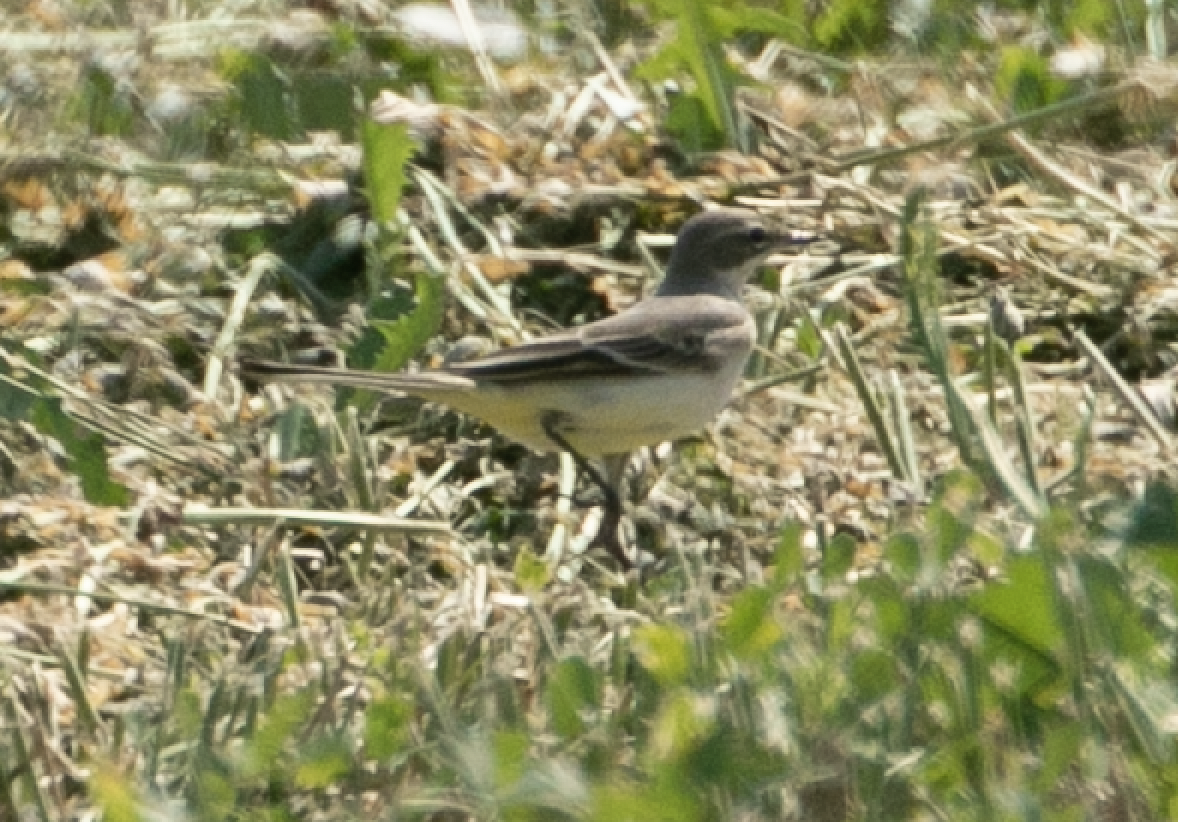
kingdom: Animalia
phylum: Chordata
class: Aves
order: Passeriformes
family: Motacillidae
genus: Motacilla
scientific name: Motacilla flava
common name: Western yellow wagtail
